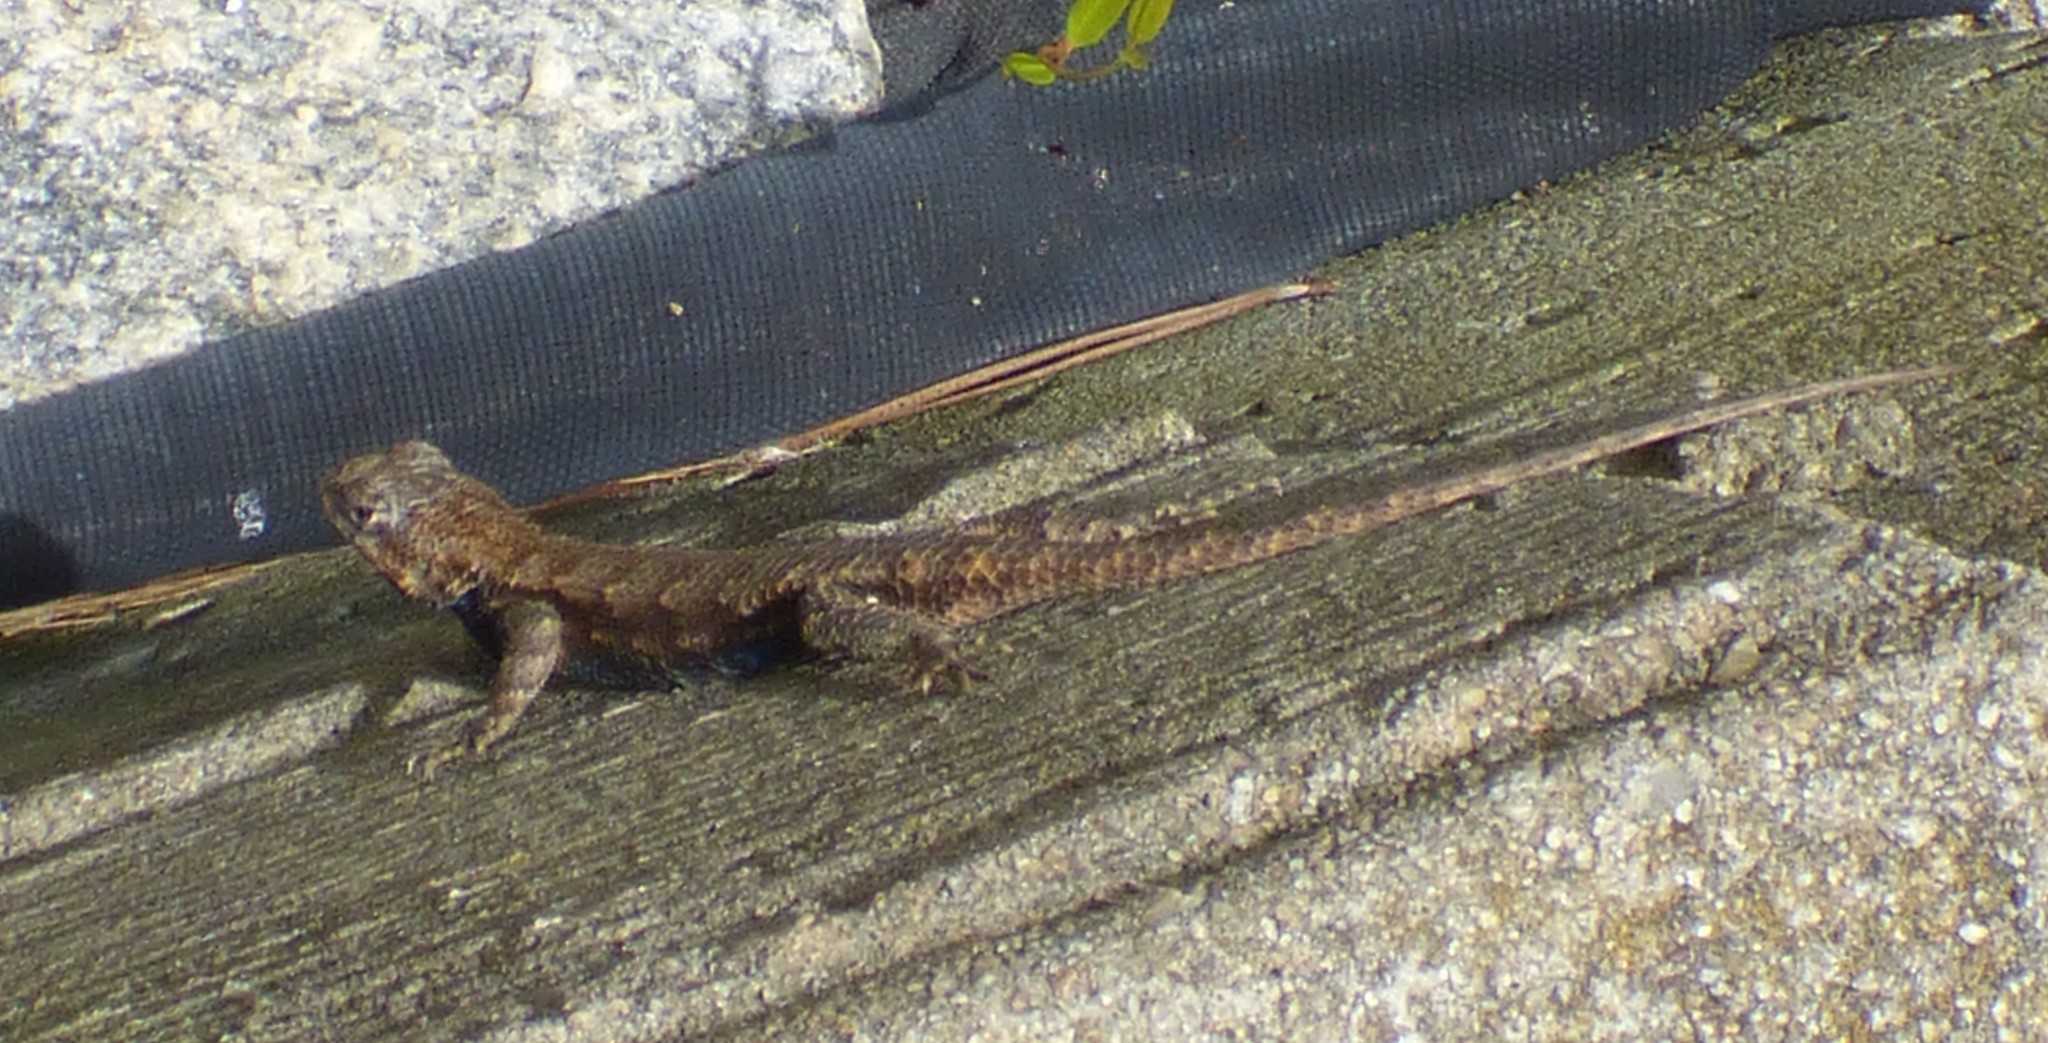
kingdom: Animalia
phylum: Chordata
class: Squamata
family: Phrynosomatidae
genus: Sceloporus
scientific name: Sceloporus undulatus
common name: Eastern fence lizard
